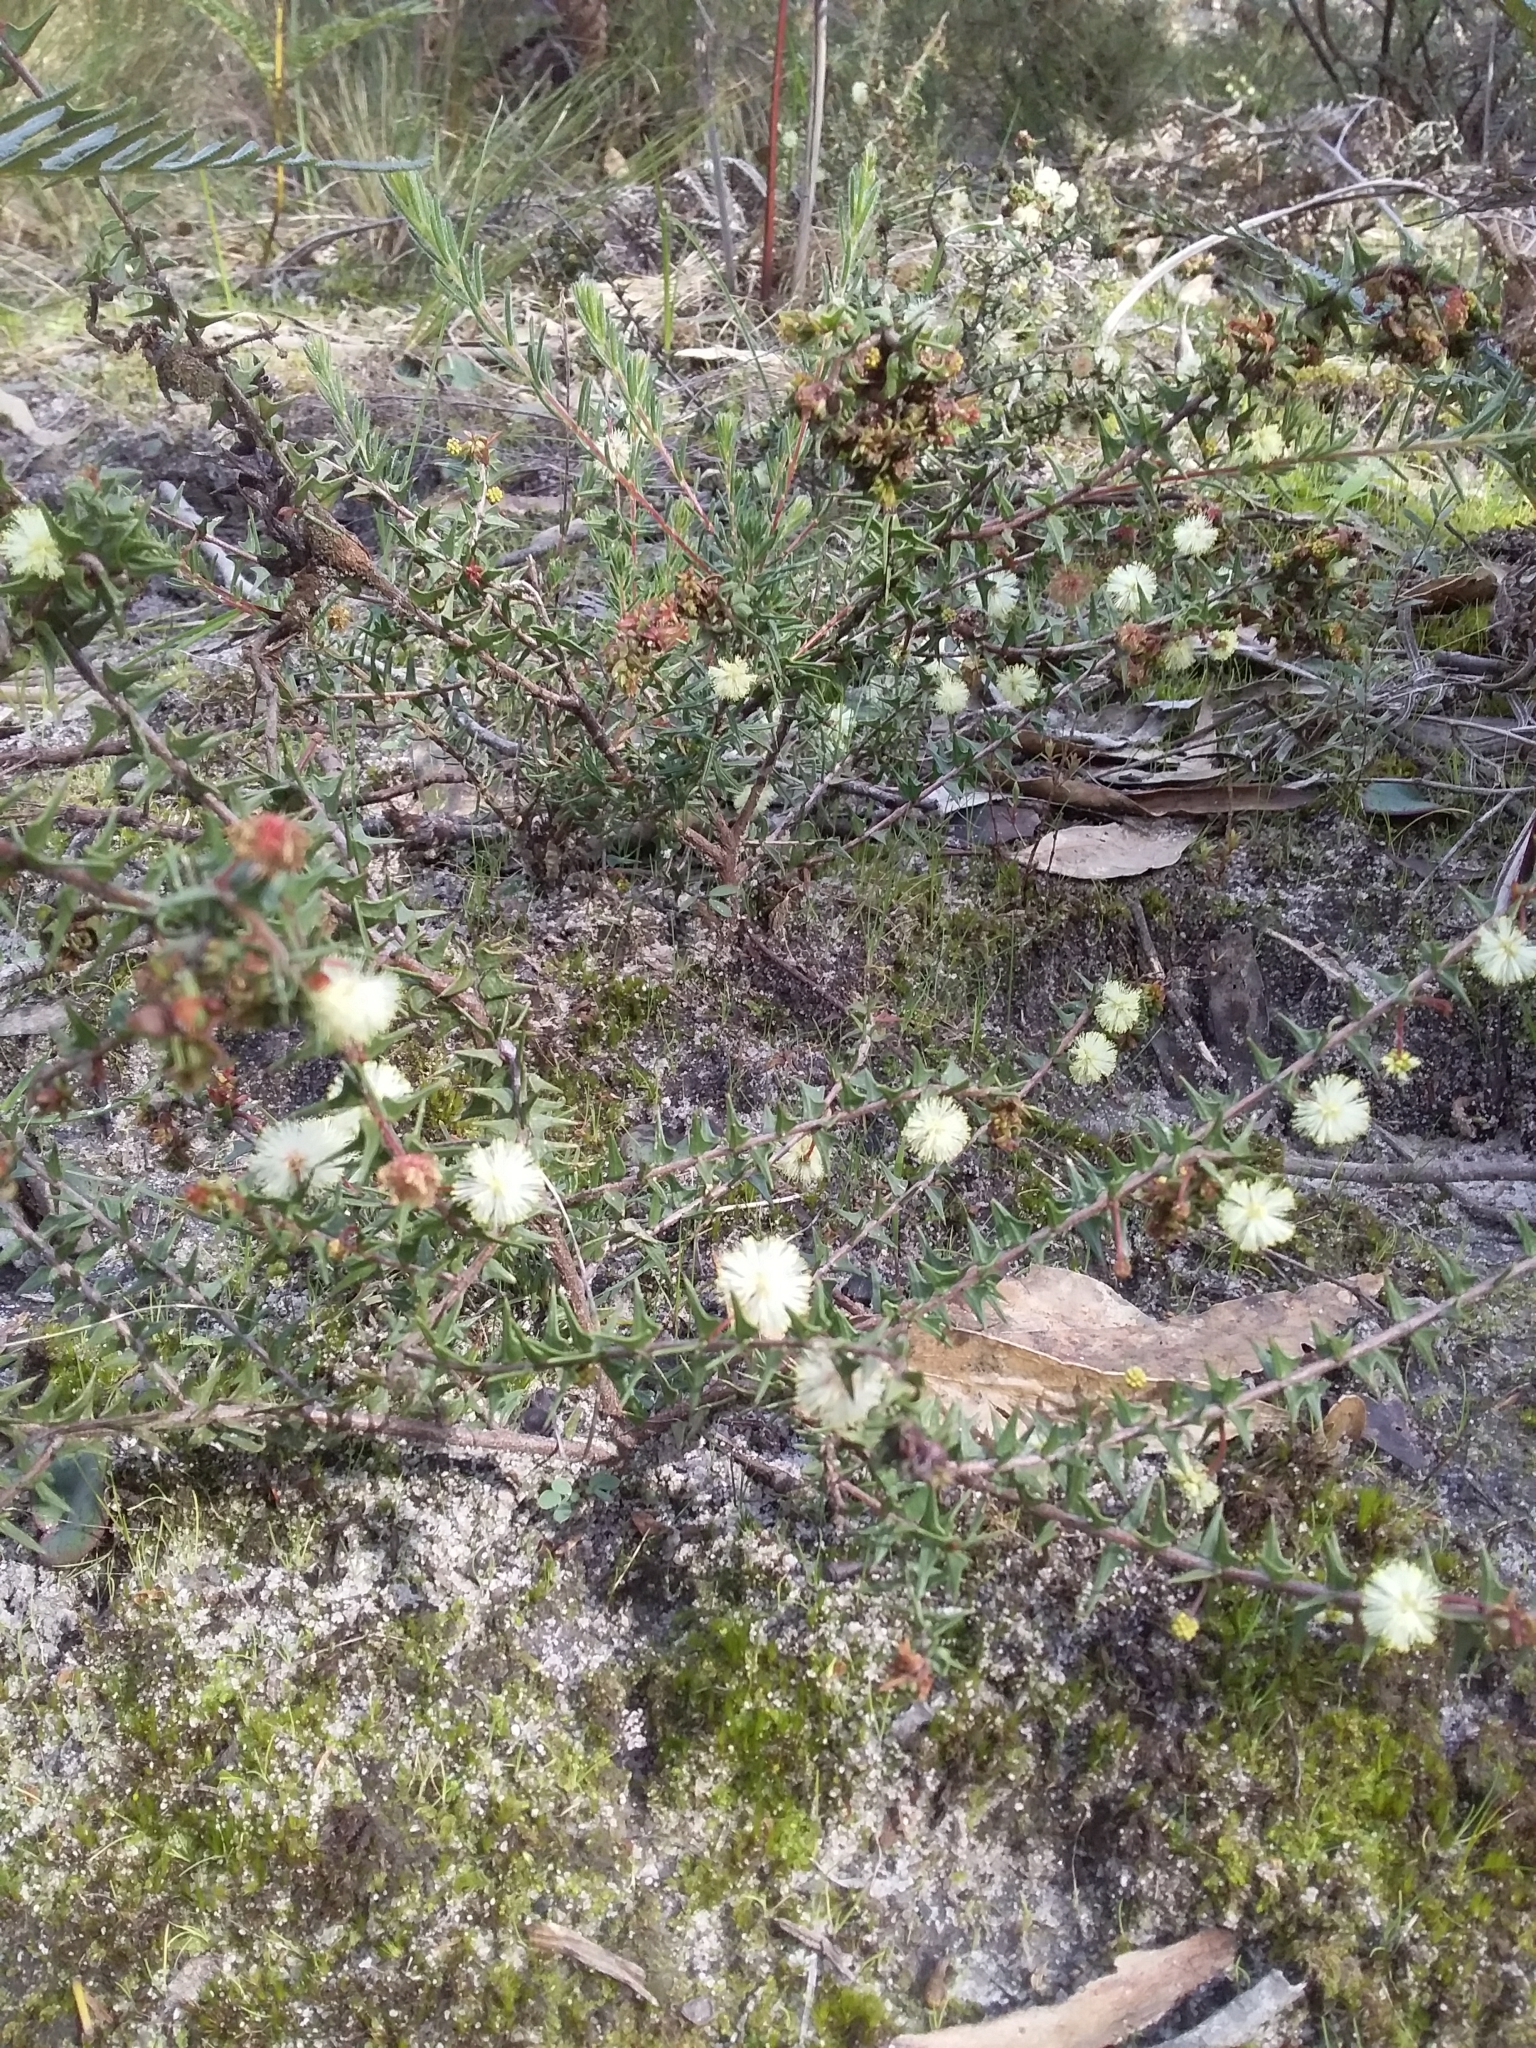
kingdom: Plantae
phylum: Tracheophyta
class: Magnoliopsida
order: Fabales
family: Fabaceae
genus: Acacia
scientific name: Acacia gunnii
